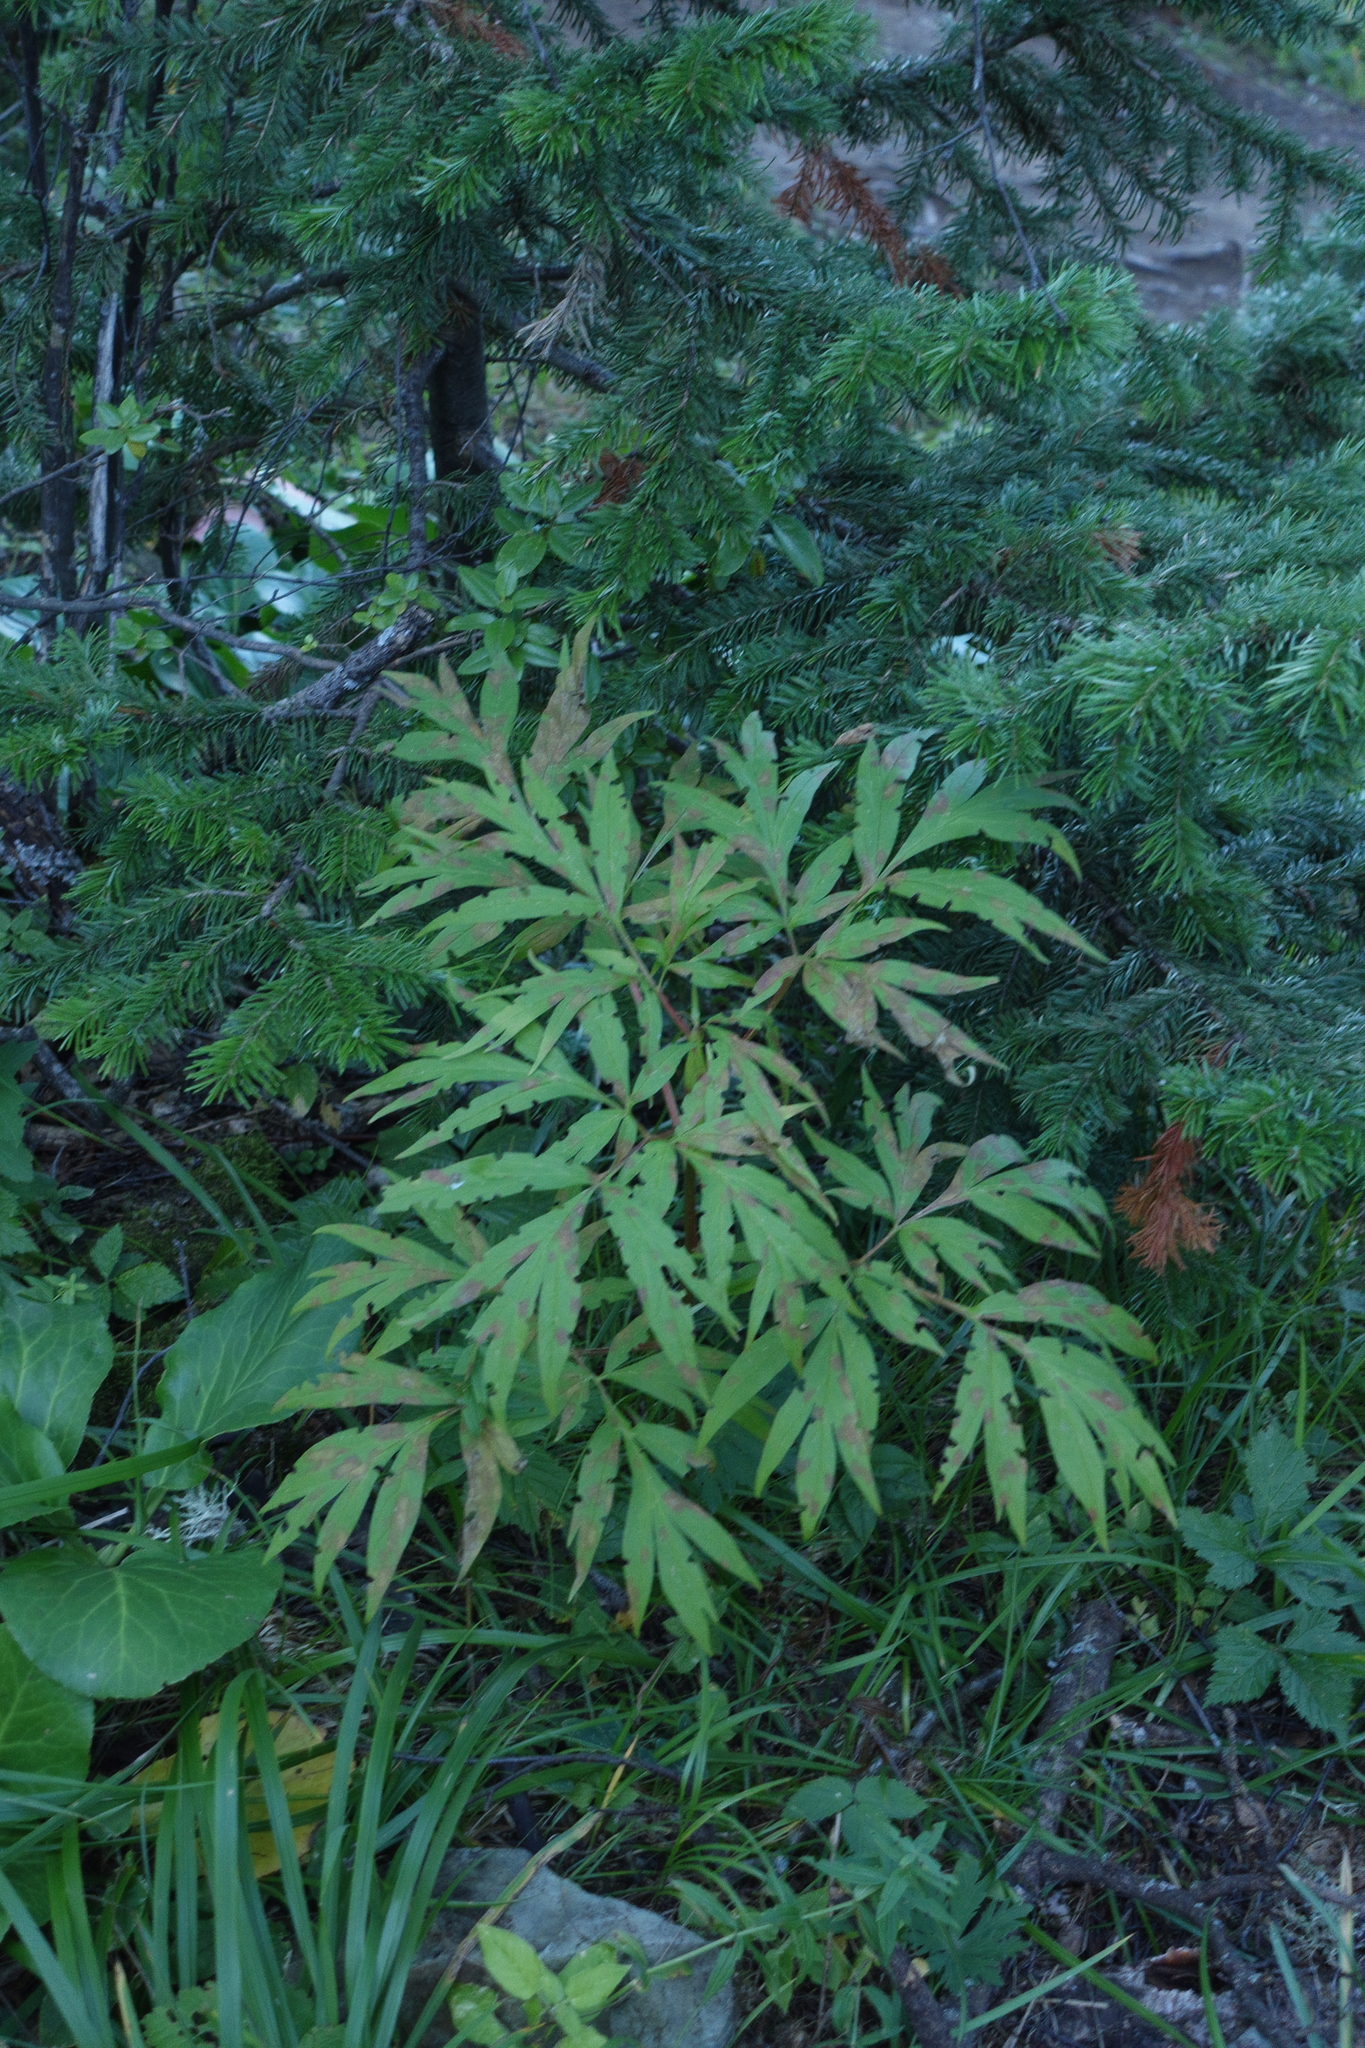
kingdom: Plantae
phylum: Tracheophyta
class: Magnoliopsida
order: Saxifragales
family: Paeoniaceae
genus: Paeonia
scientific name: Paeonia anomala
